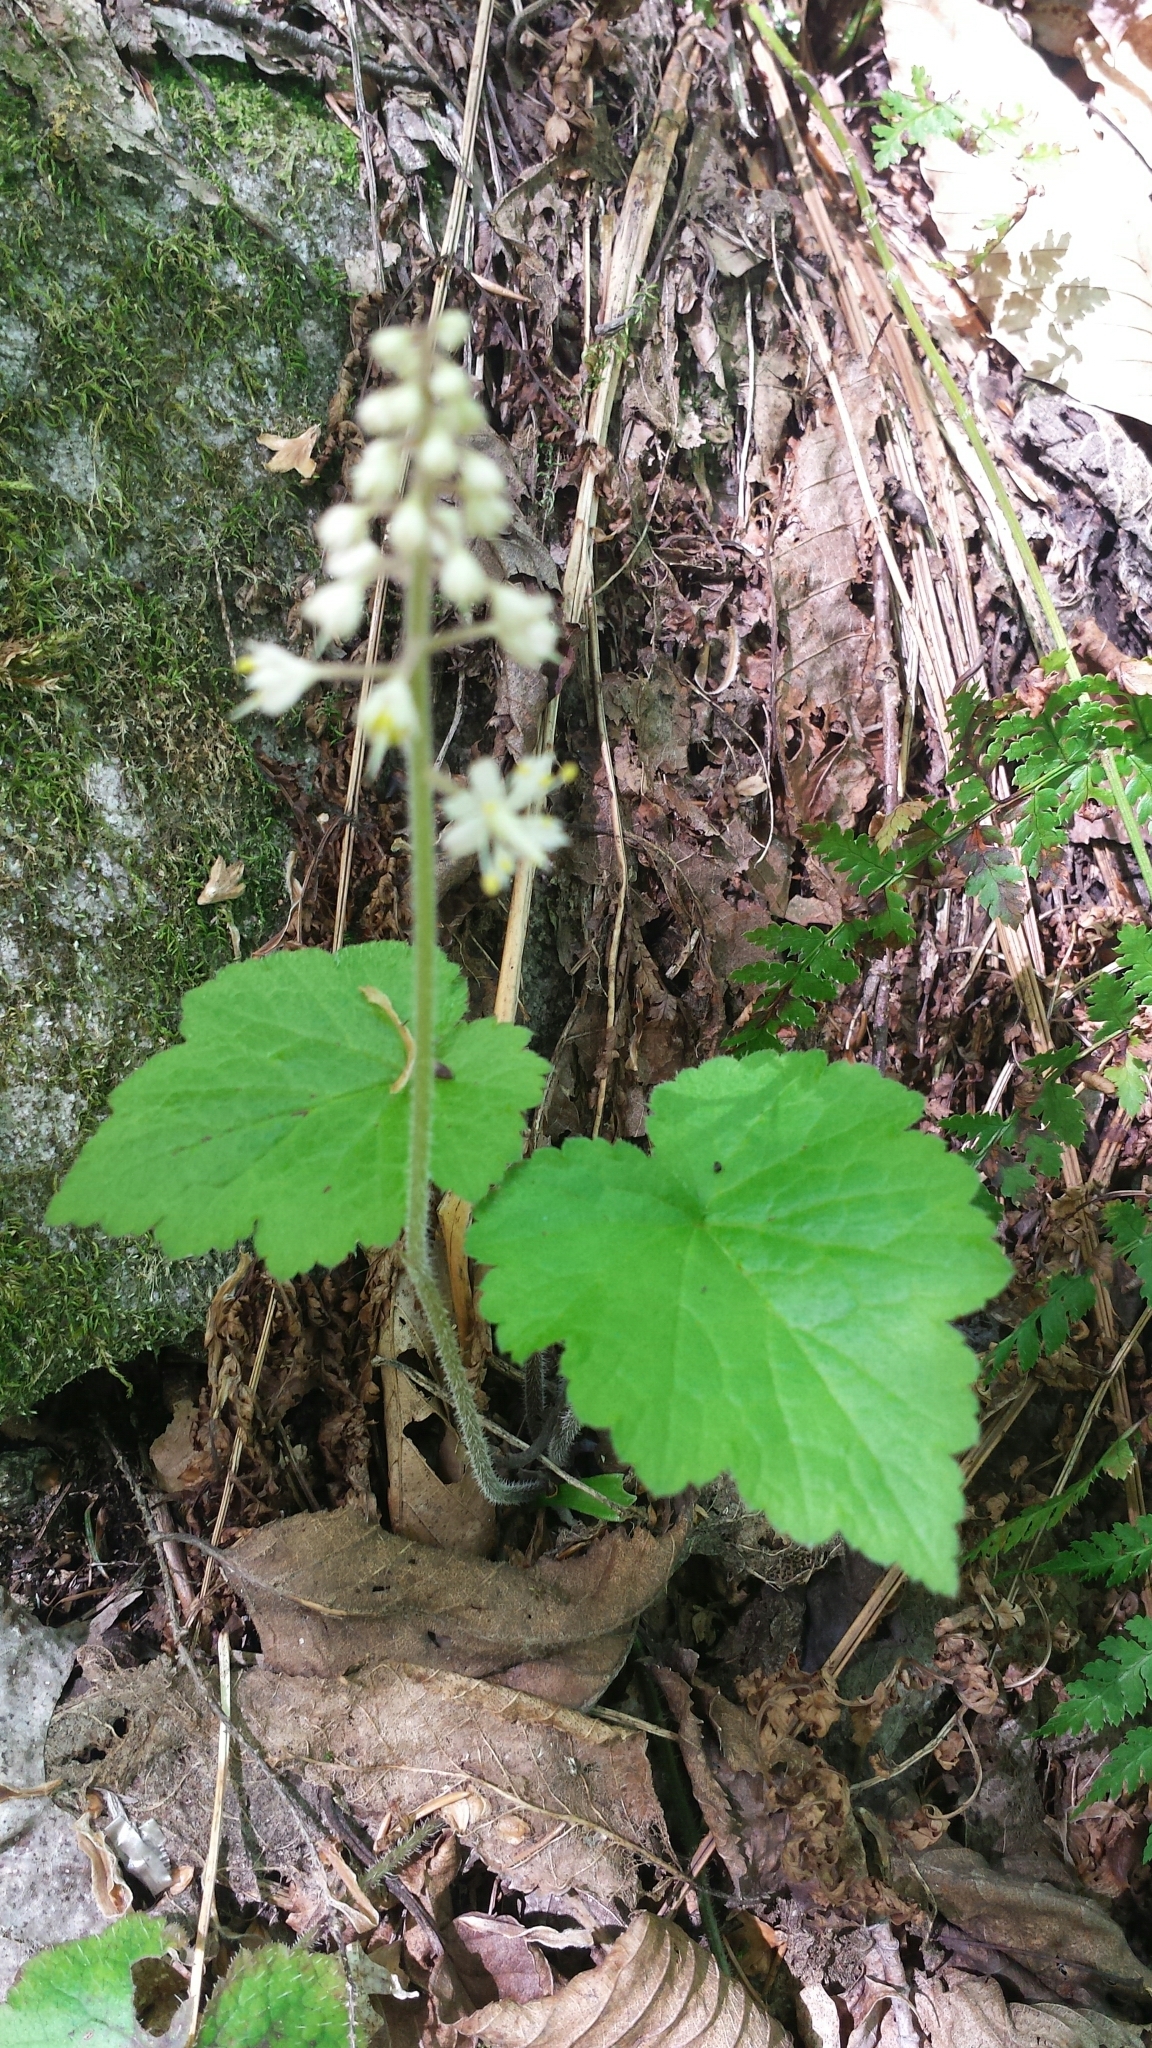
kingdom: Plantae
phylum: Tracheophyta
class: Magnoliopsida
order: Saxifragales
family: Saxifragaceae
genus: Tiarella
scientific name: Tiarella stolonifera
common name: Stoloniferous foamflower
